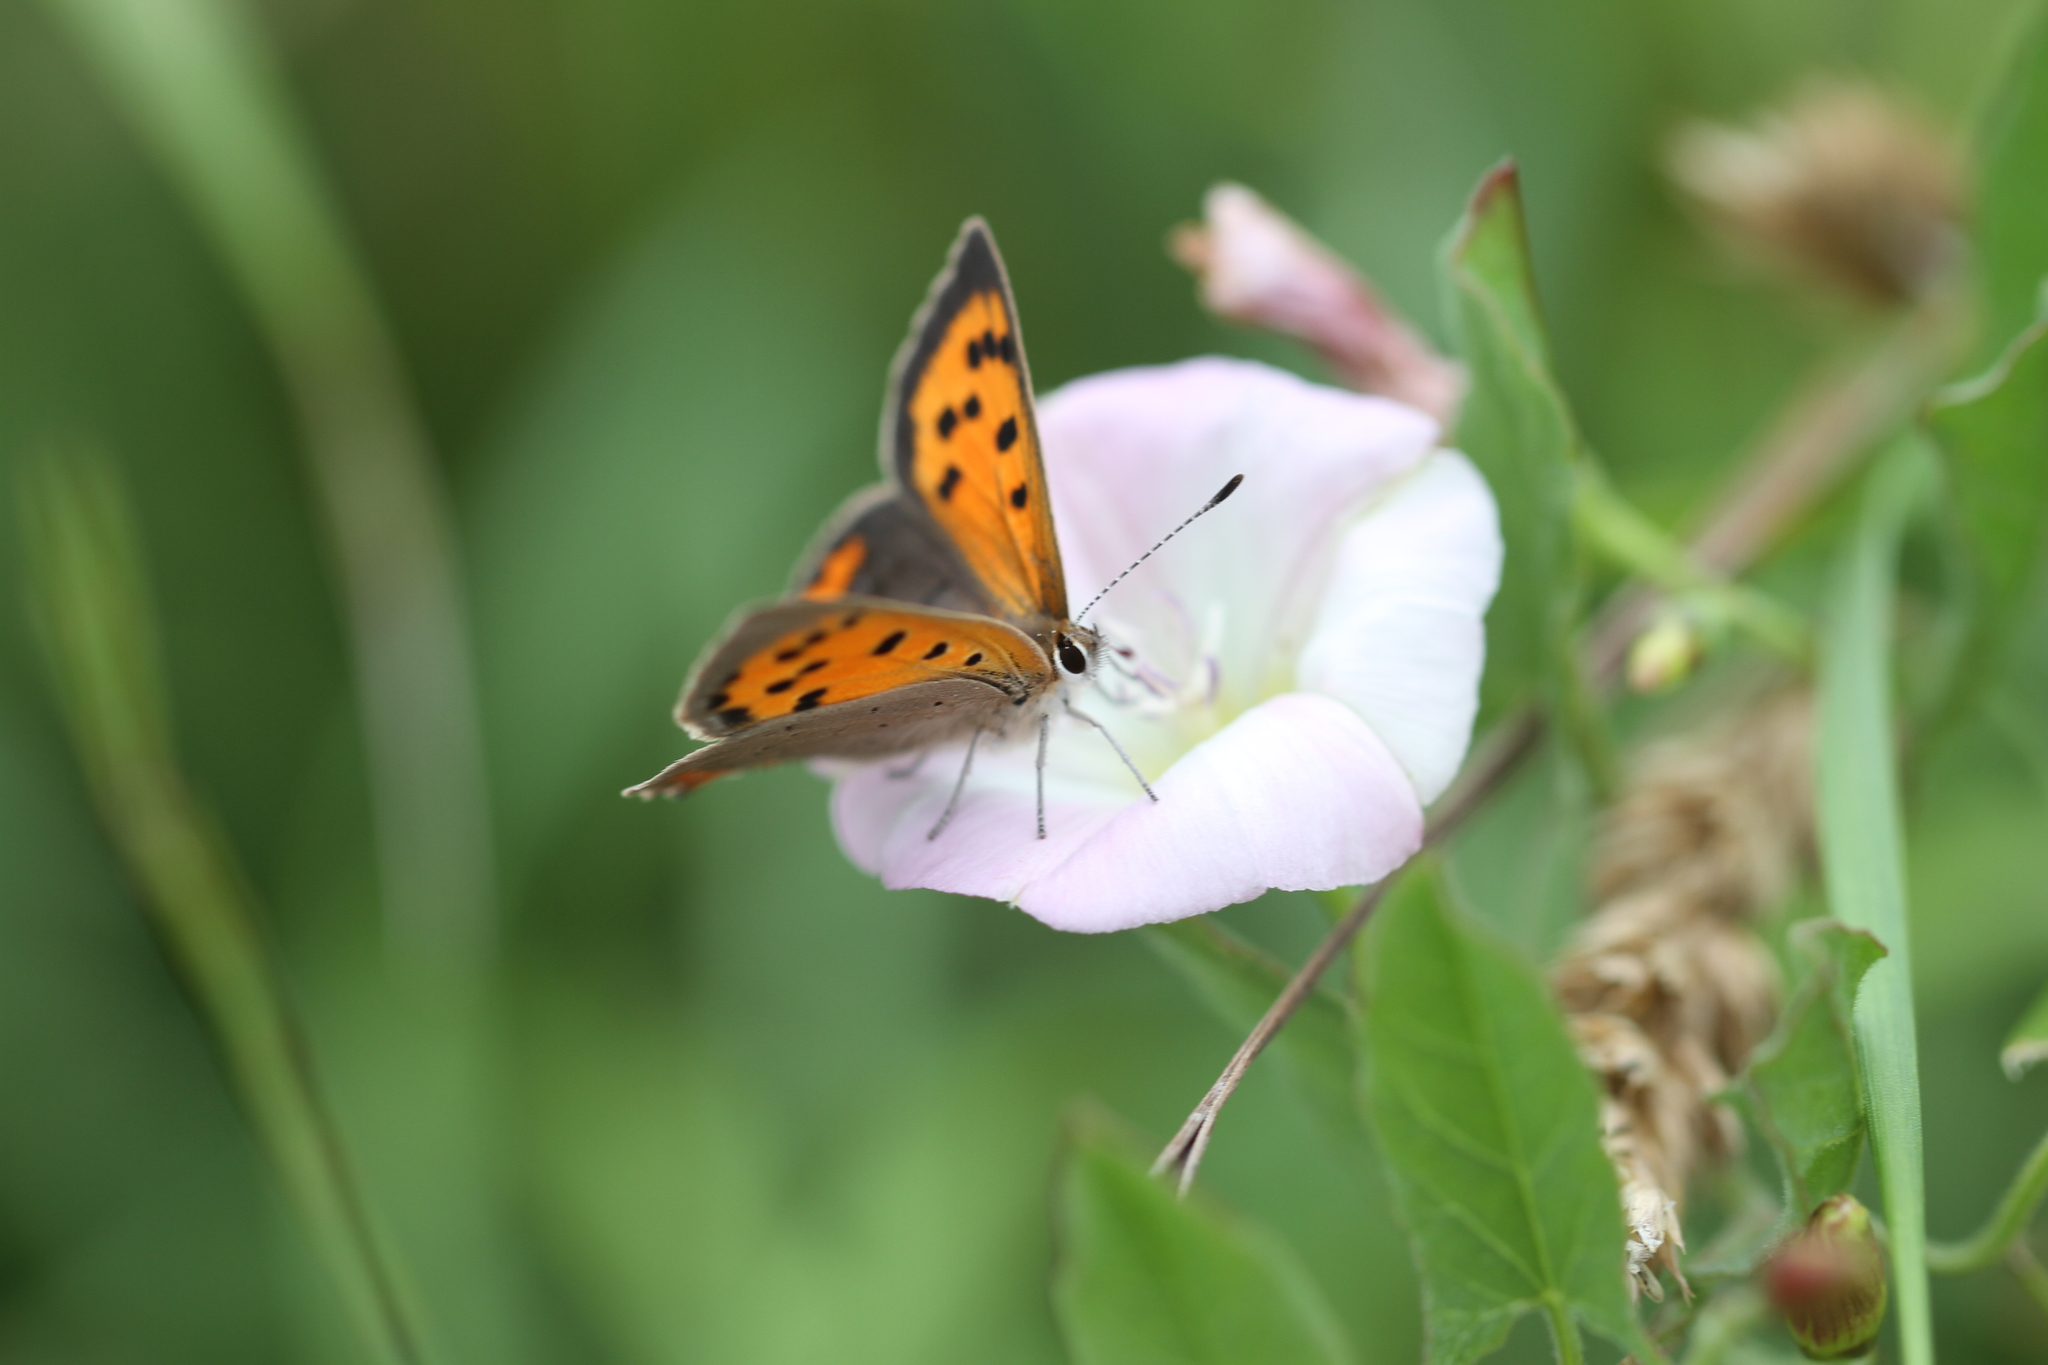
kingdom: Animalia
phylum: Arthropoda
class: Insecta
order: Lepidoptera
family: Lycaenidae
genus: Lycaena
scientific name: Lycaena phlaeas
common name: Small copper
